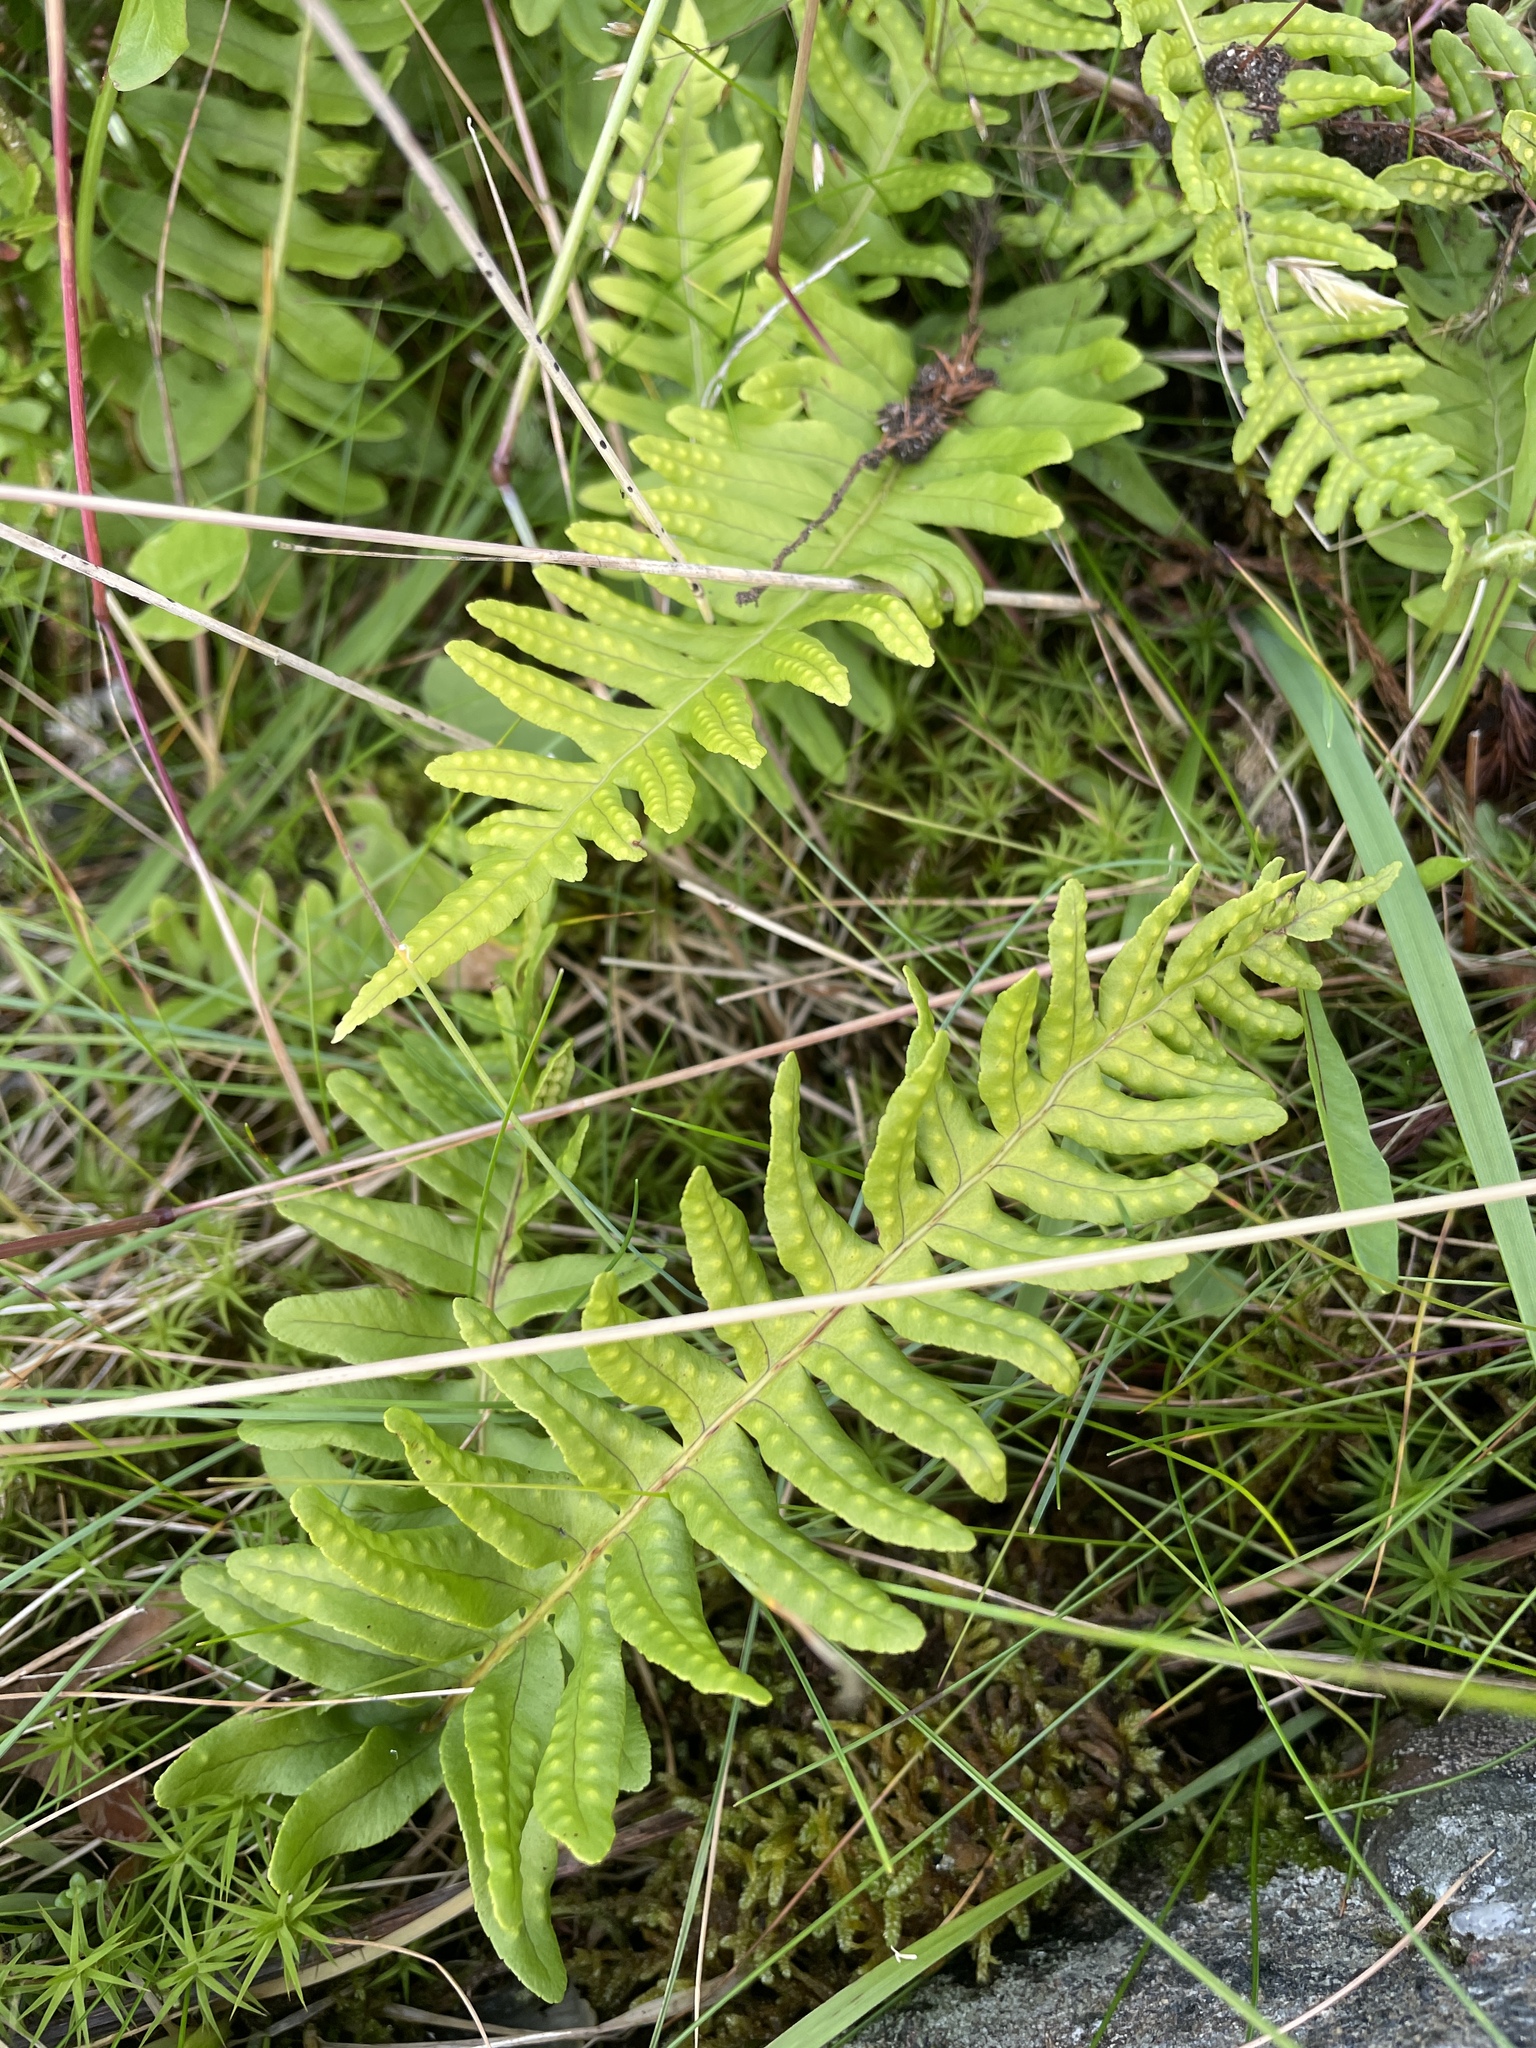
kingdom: Plantae
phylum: Tracheophyta
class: Polypodiopsida
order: Polypodiales
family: Polypodiaceae
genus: Polypodium
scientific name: Polypodium vulgare
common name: Common polypody
